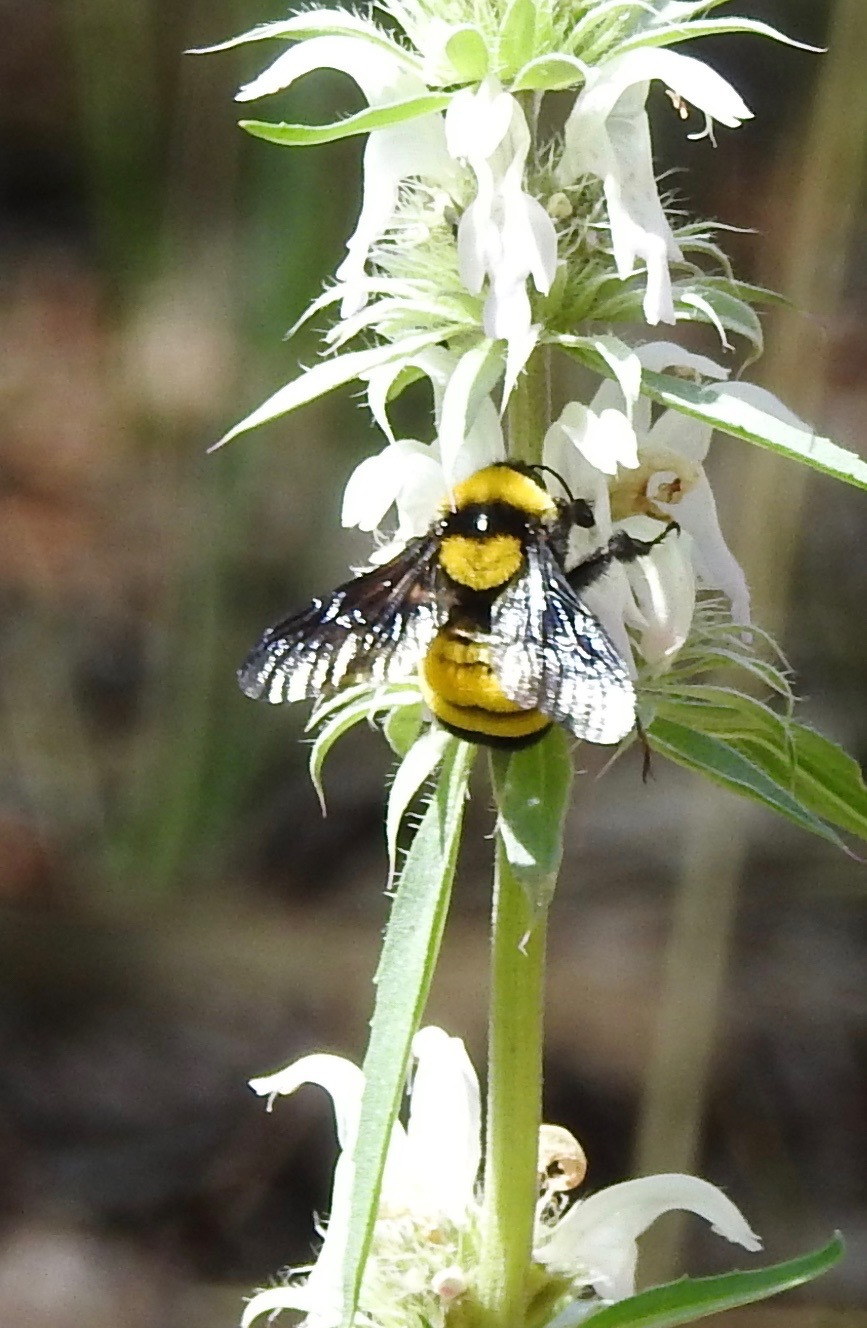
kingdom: Animalia
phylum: Arthropoda
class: Insecta
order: Hymenoptera
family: Apidae
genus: Bombus
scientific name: Bombus sonorus
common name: Sonoran bumble bee
